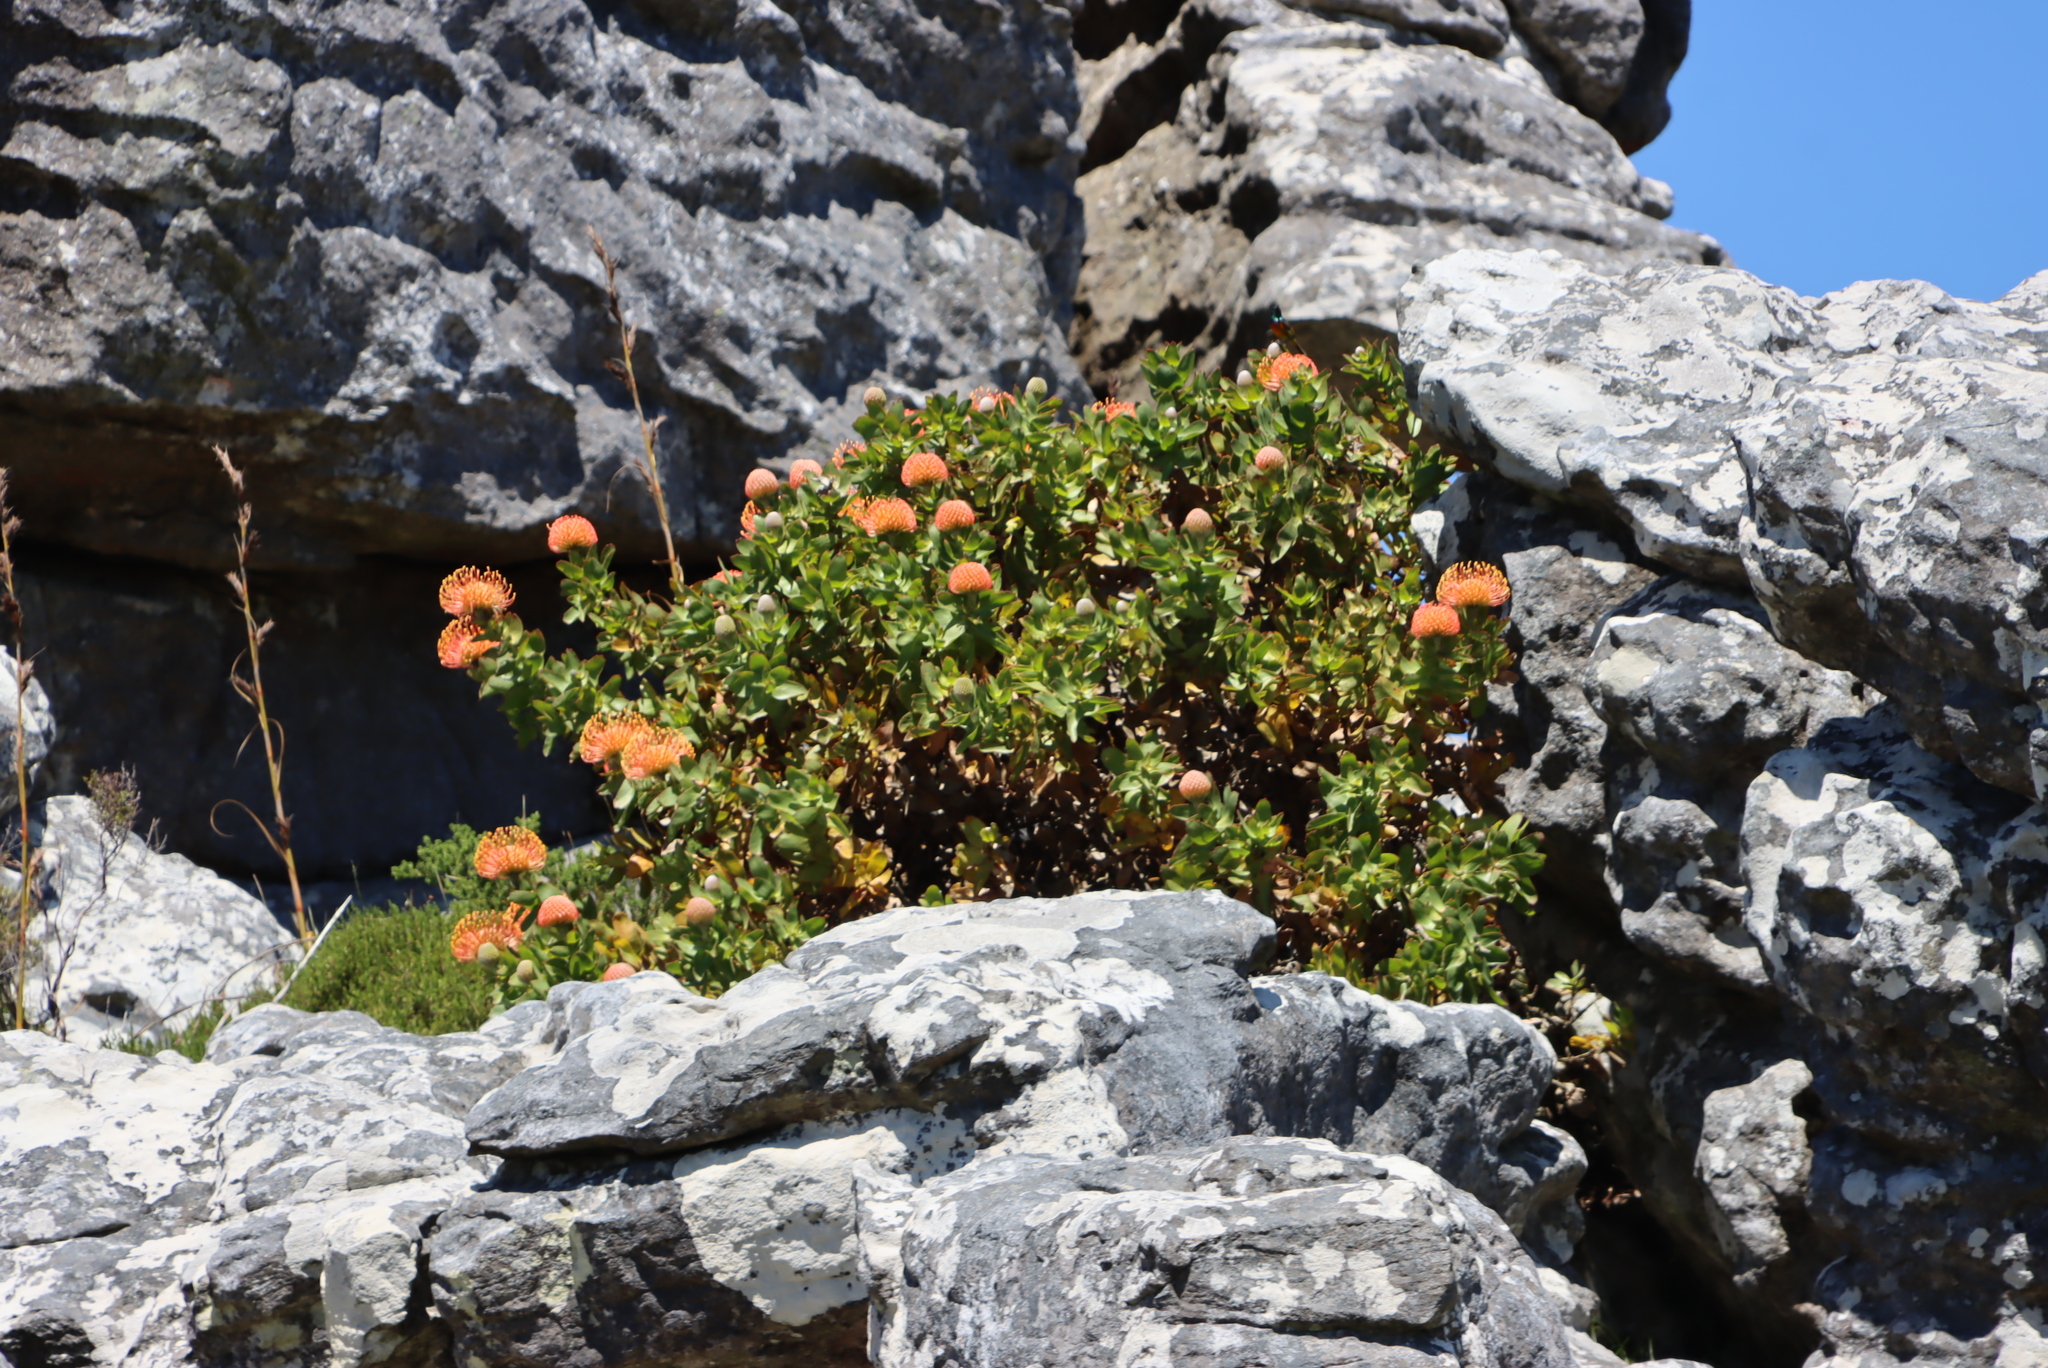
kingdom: Plantae
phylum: Tracheophyta
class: Magnoliopsida
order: Proteales
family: Proteaceae
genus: Leucospermum
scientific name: Leucospermum cordifolium
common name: Red pincushion-protea
